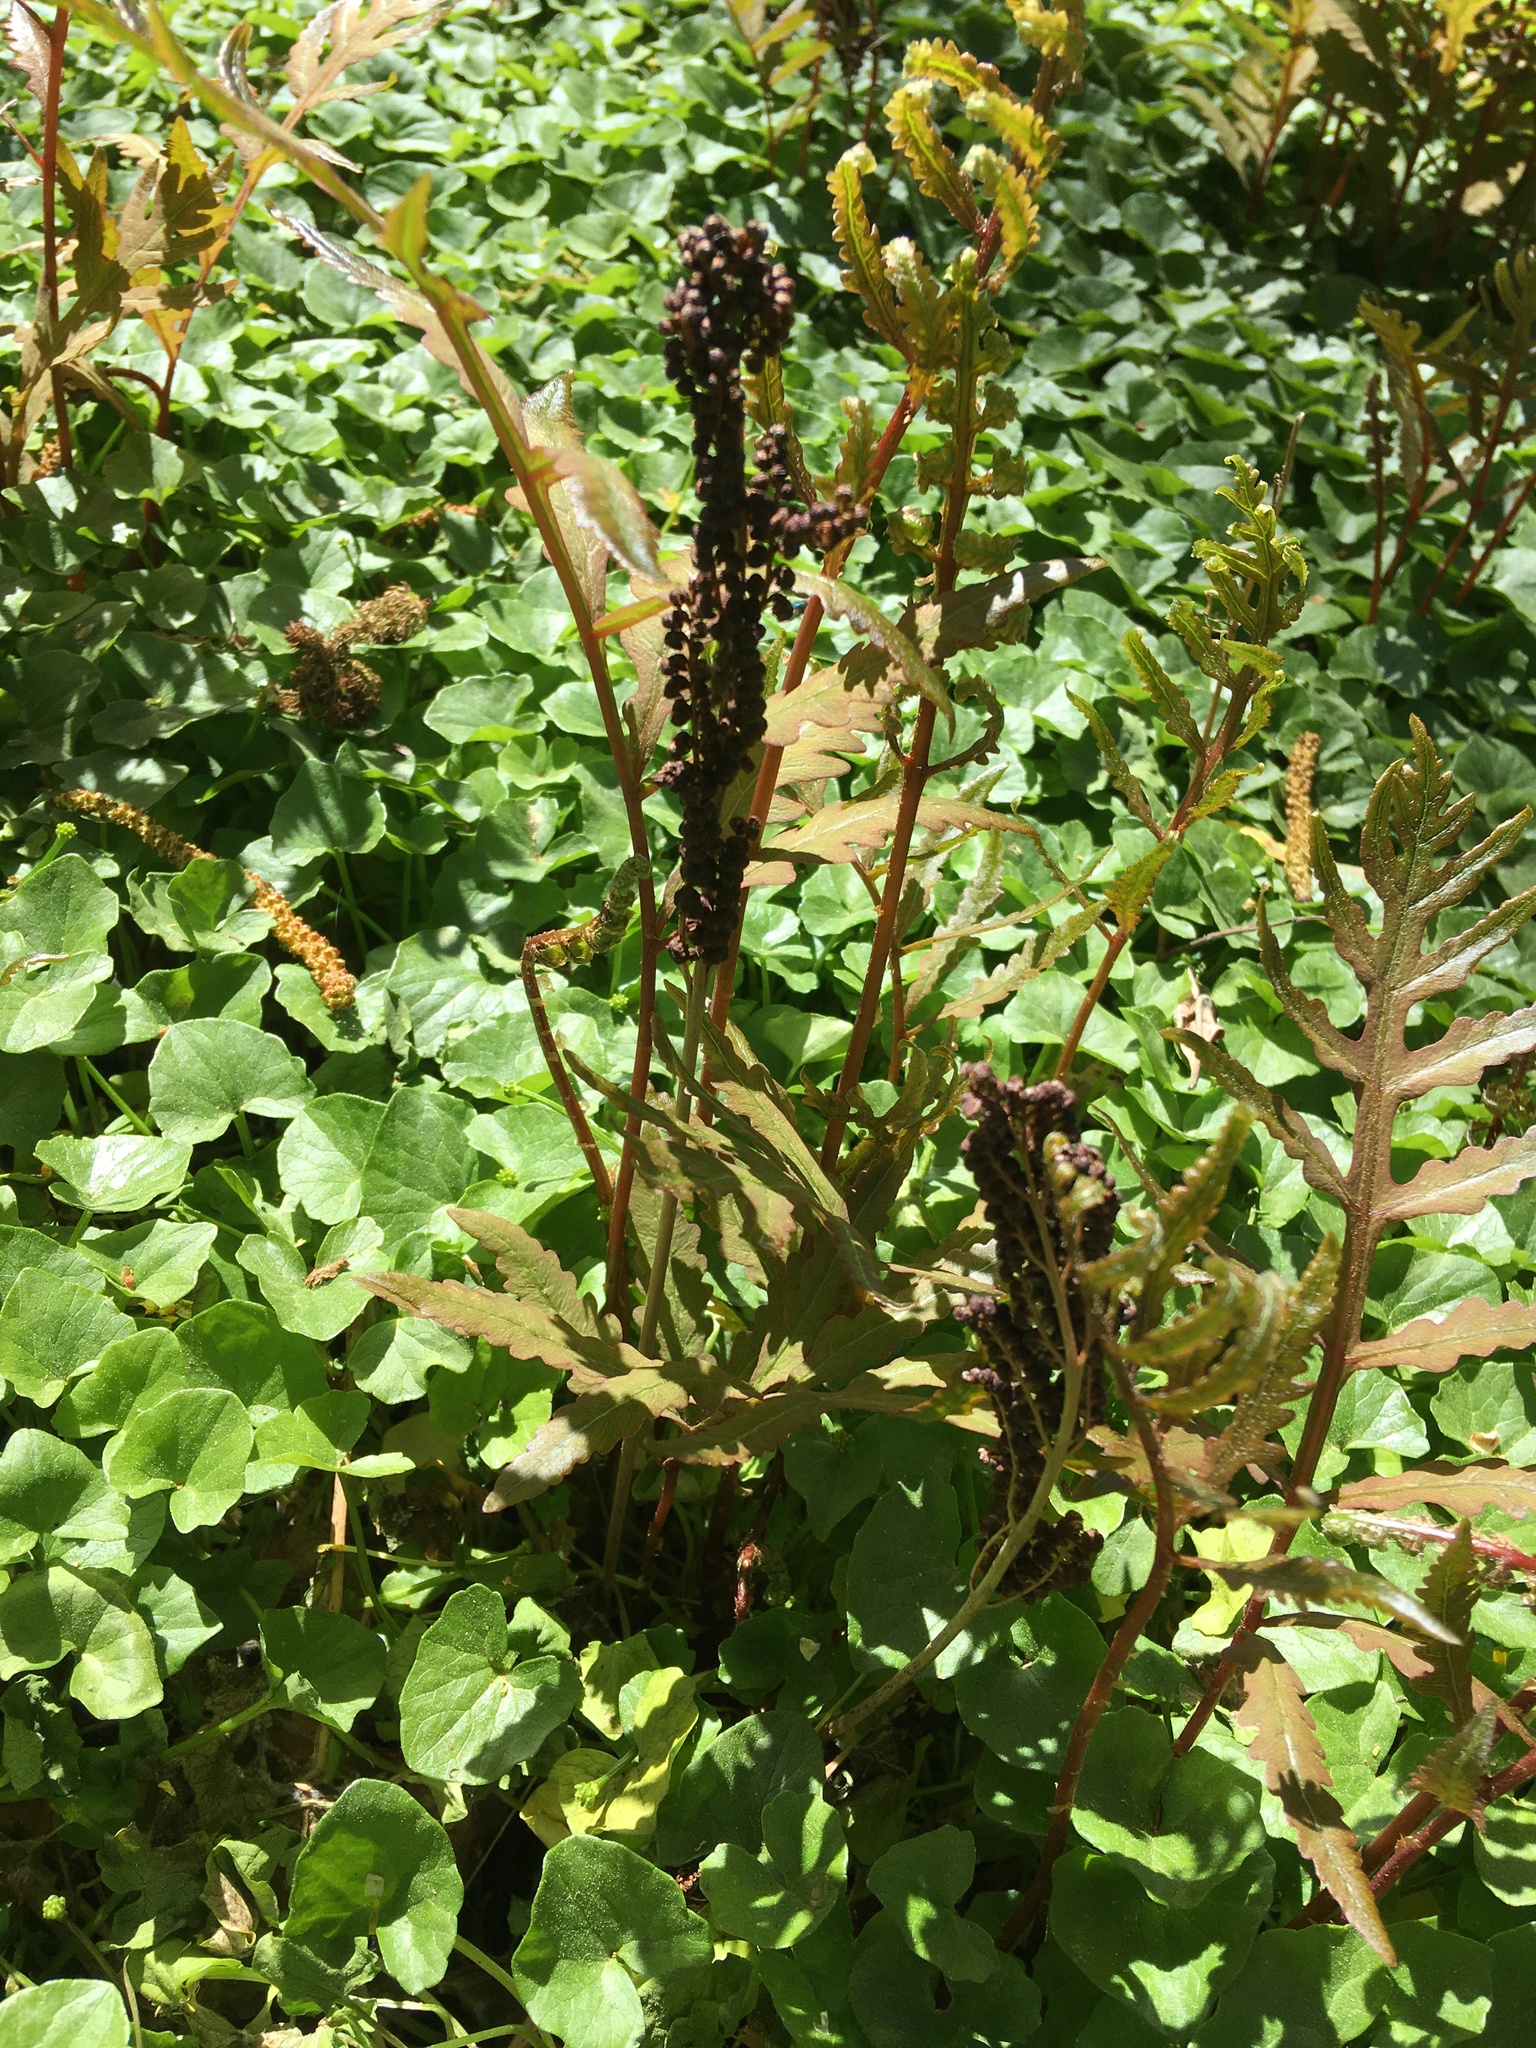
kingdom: Plantae
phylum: Tracheophyta
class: Polypodiopsida
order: Polypodiales
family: Onocleaceae
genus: Onoclea
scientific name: Onoclea sensibilis
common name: Sensitive fern
